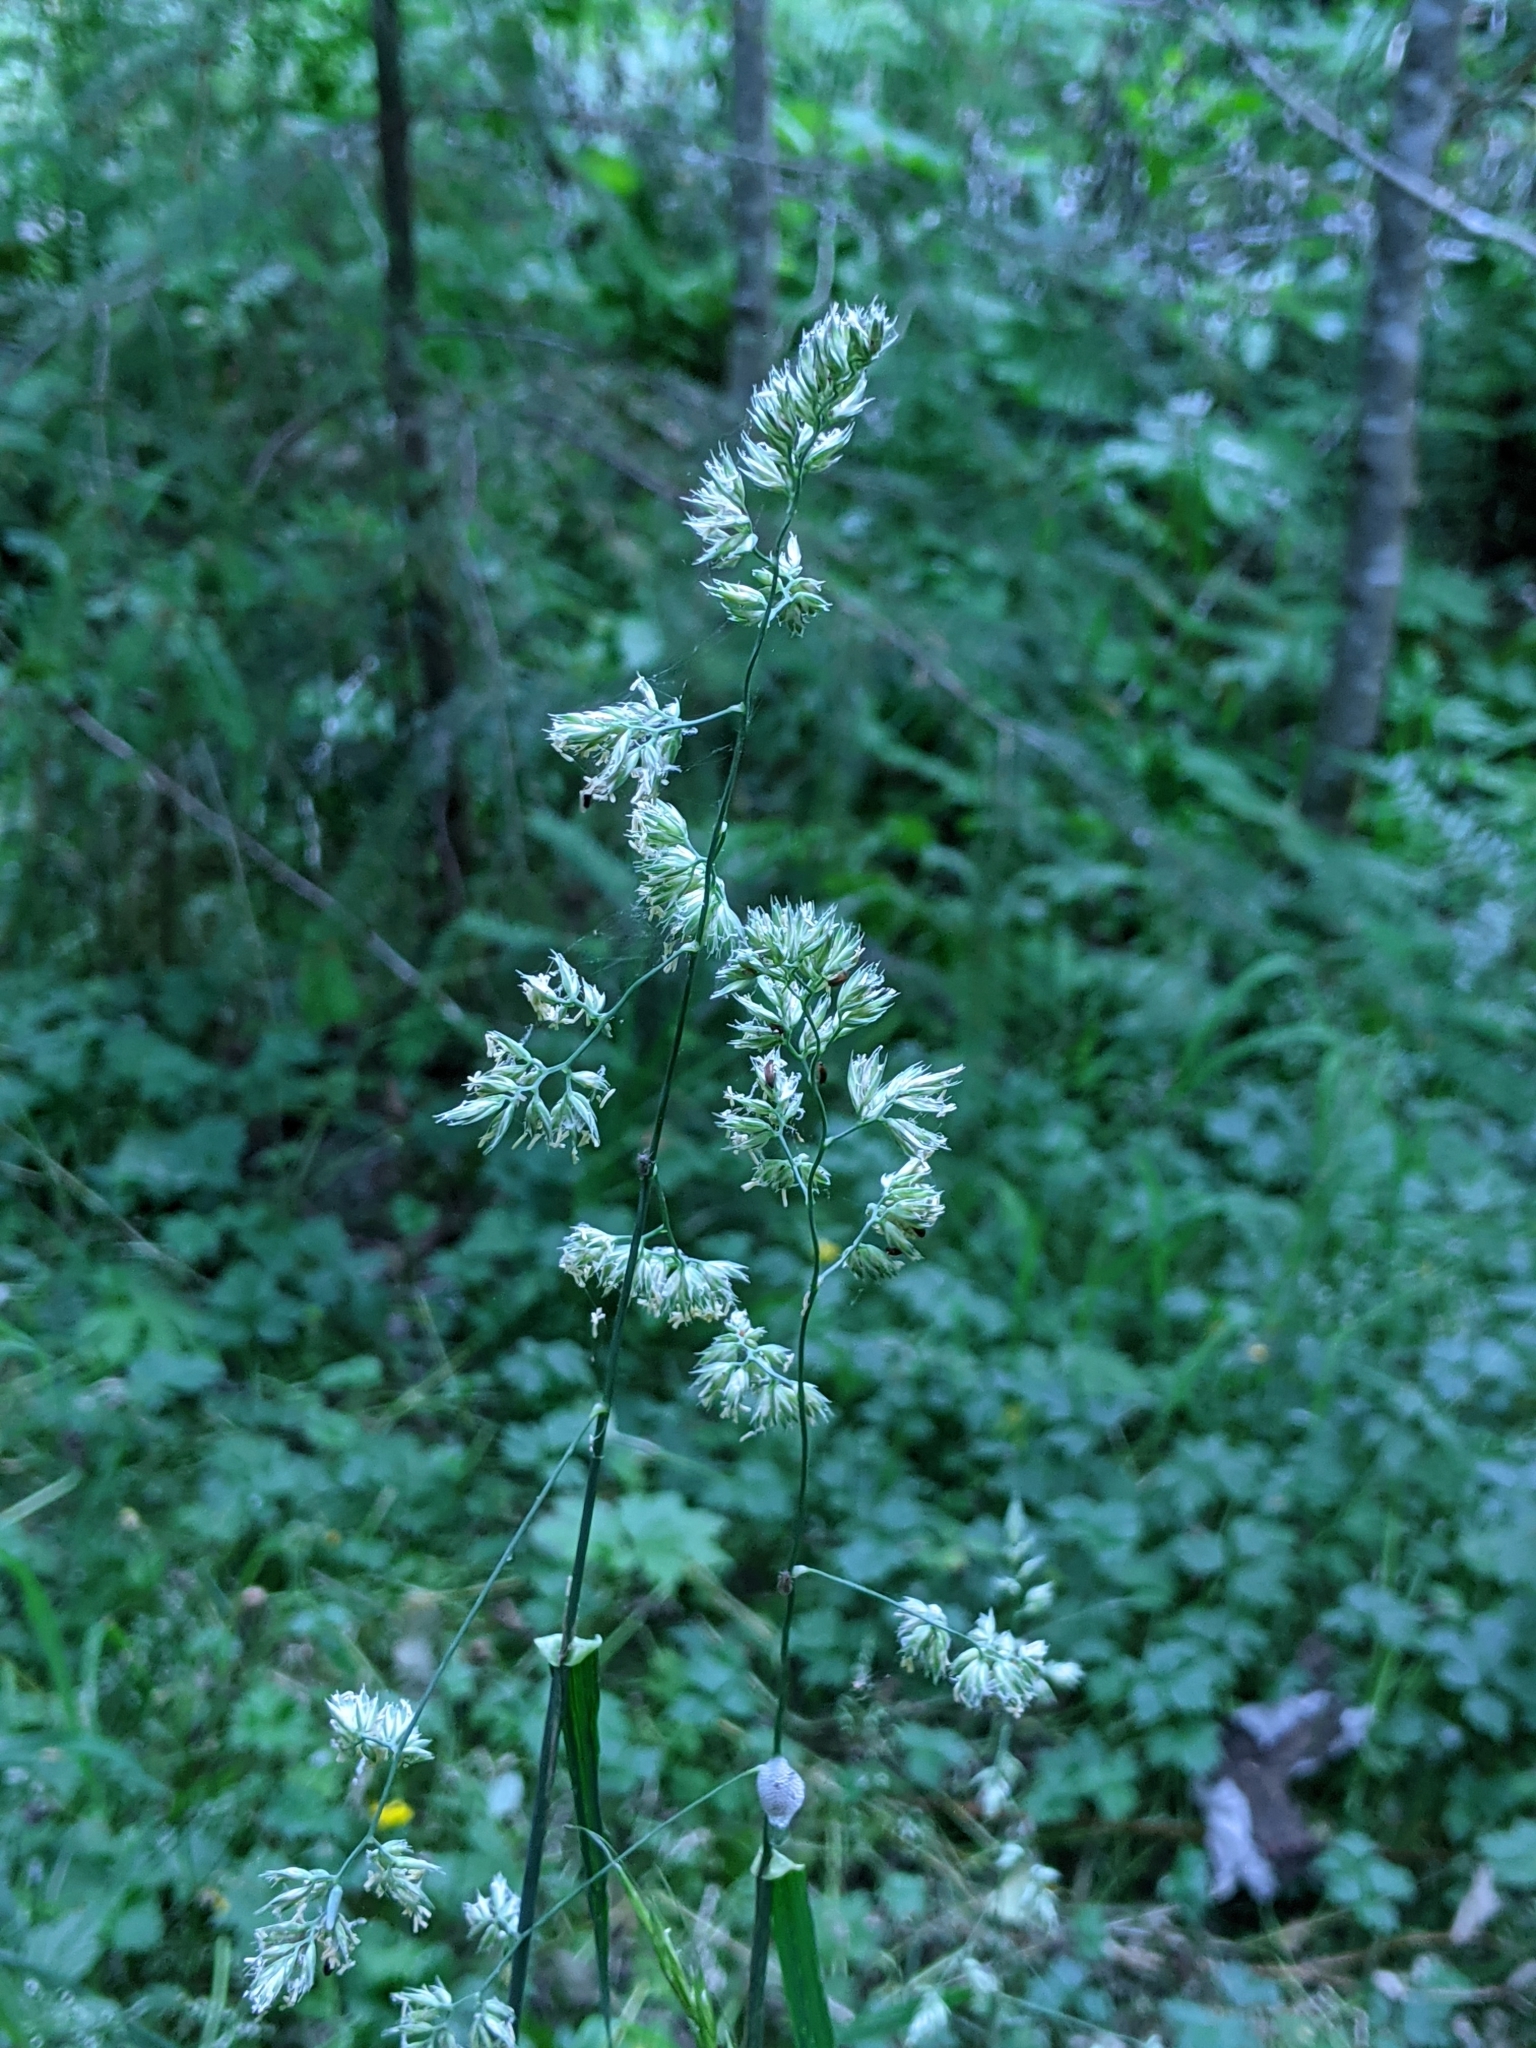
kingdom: Plantae
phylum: Tracheophyta
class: Liliopsida
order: Poales
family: Poaceae
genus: Dactylis
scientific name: Dactylis glomerata
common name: Orchardgrass
